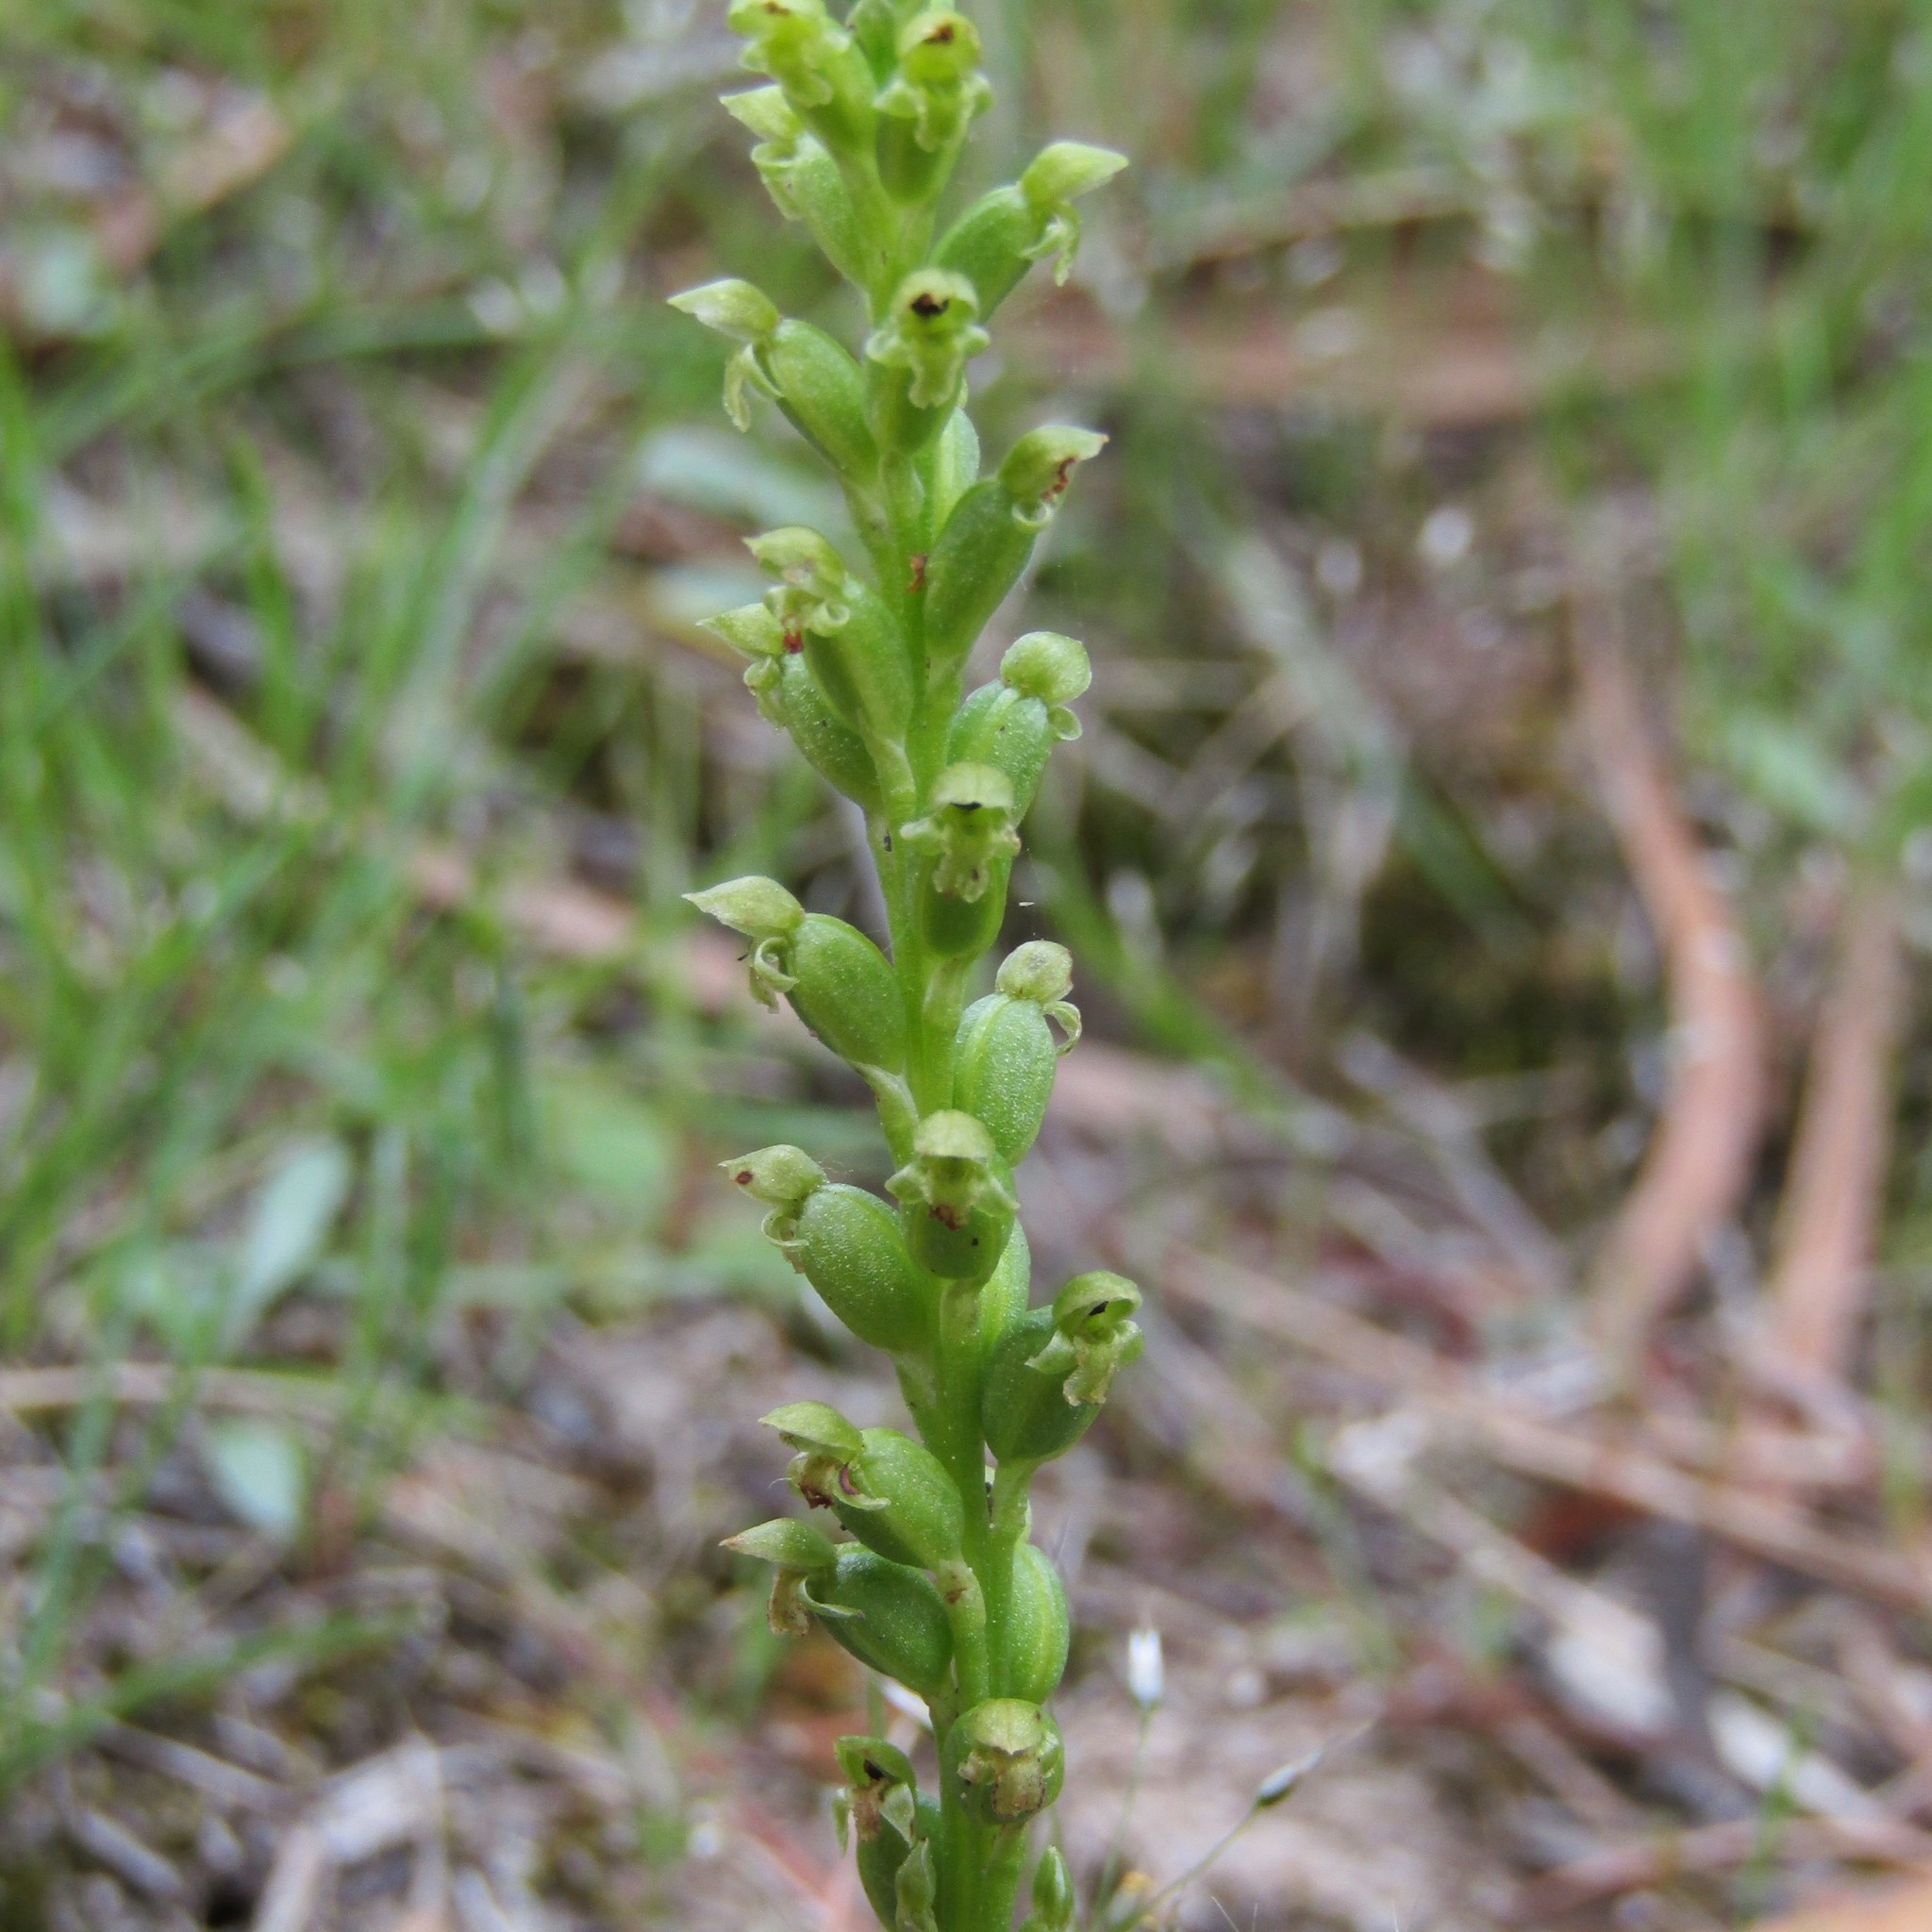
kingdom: Plantae
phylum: Tracheophyta
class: Liliopsida
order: Asparagales
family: Orchidaceae
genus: Microtis
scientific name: Microtis unifolia
